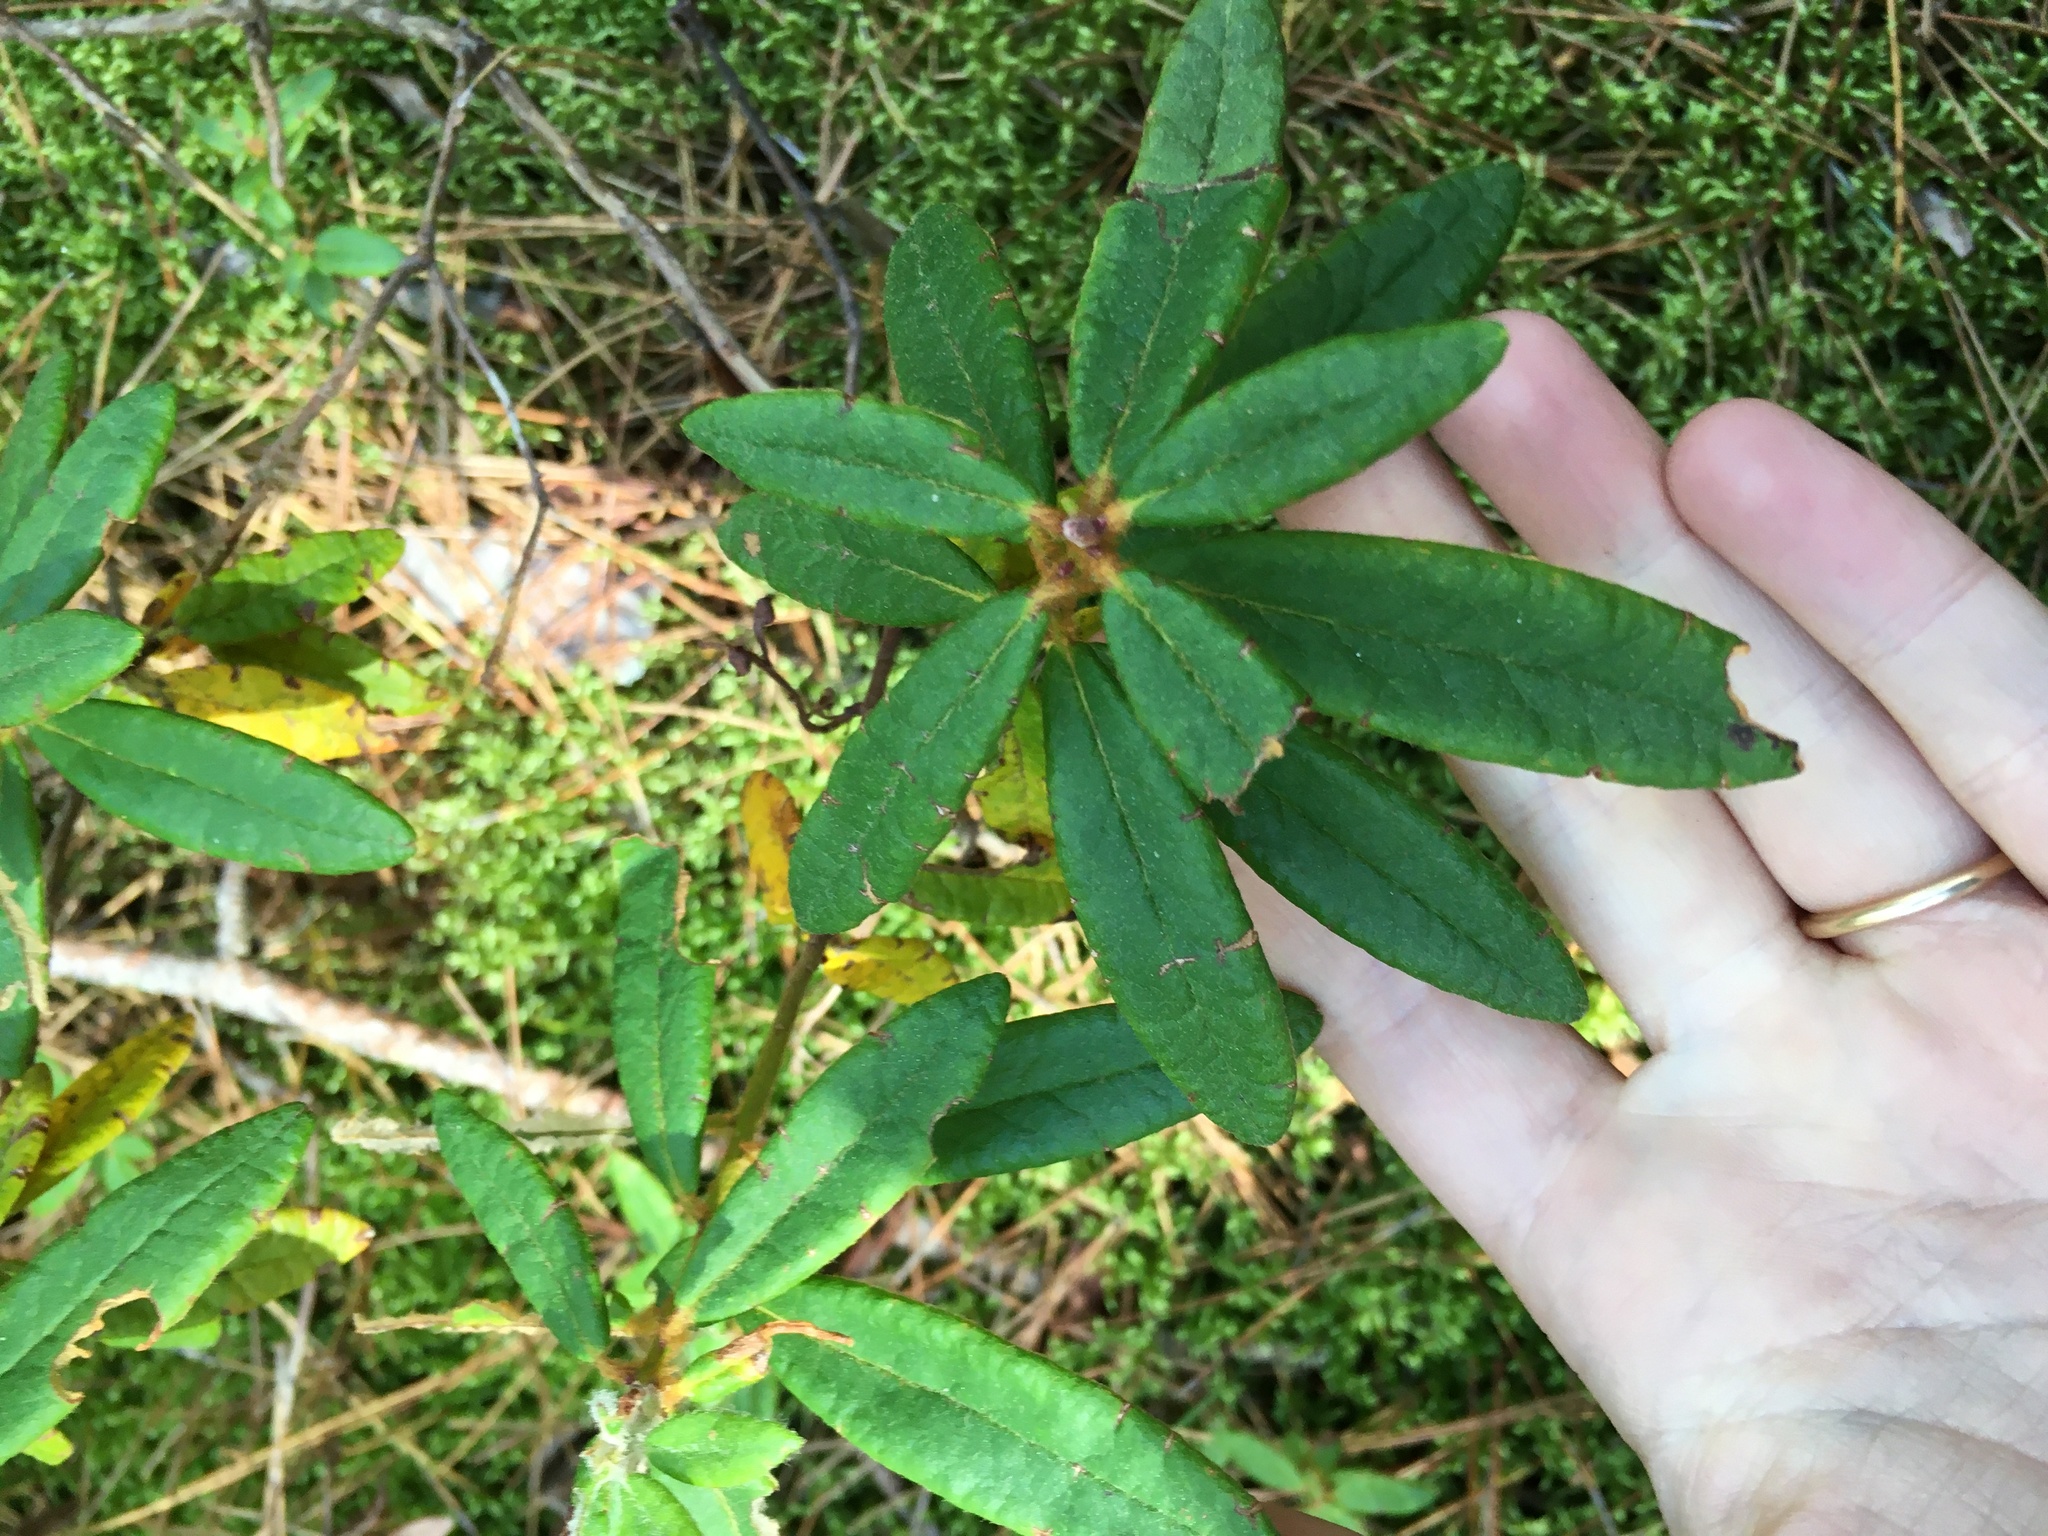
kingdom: Plantae
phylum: Tracheophyta
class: Magnoliopsida
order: Ericales
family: Ericaceae
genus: Rhododendron
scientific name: Rhododendron groenlandicum
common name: Bog labrador tea
